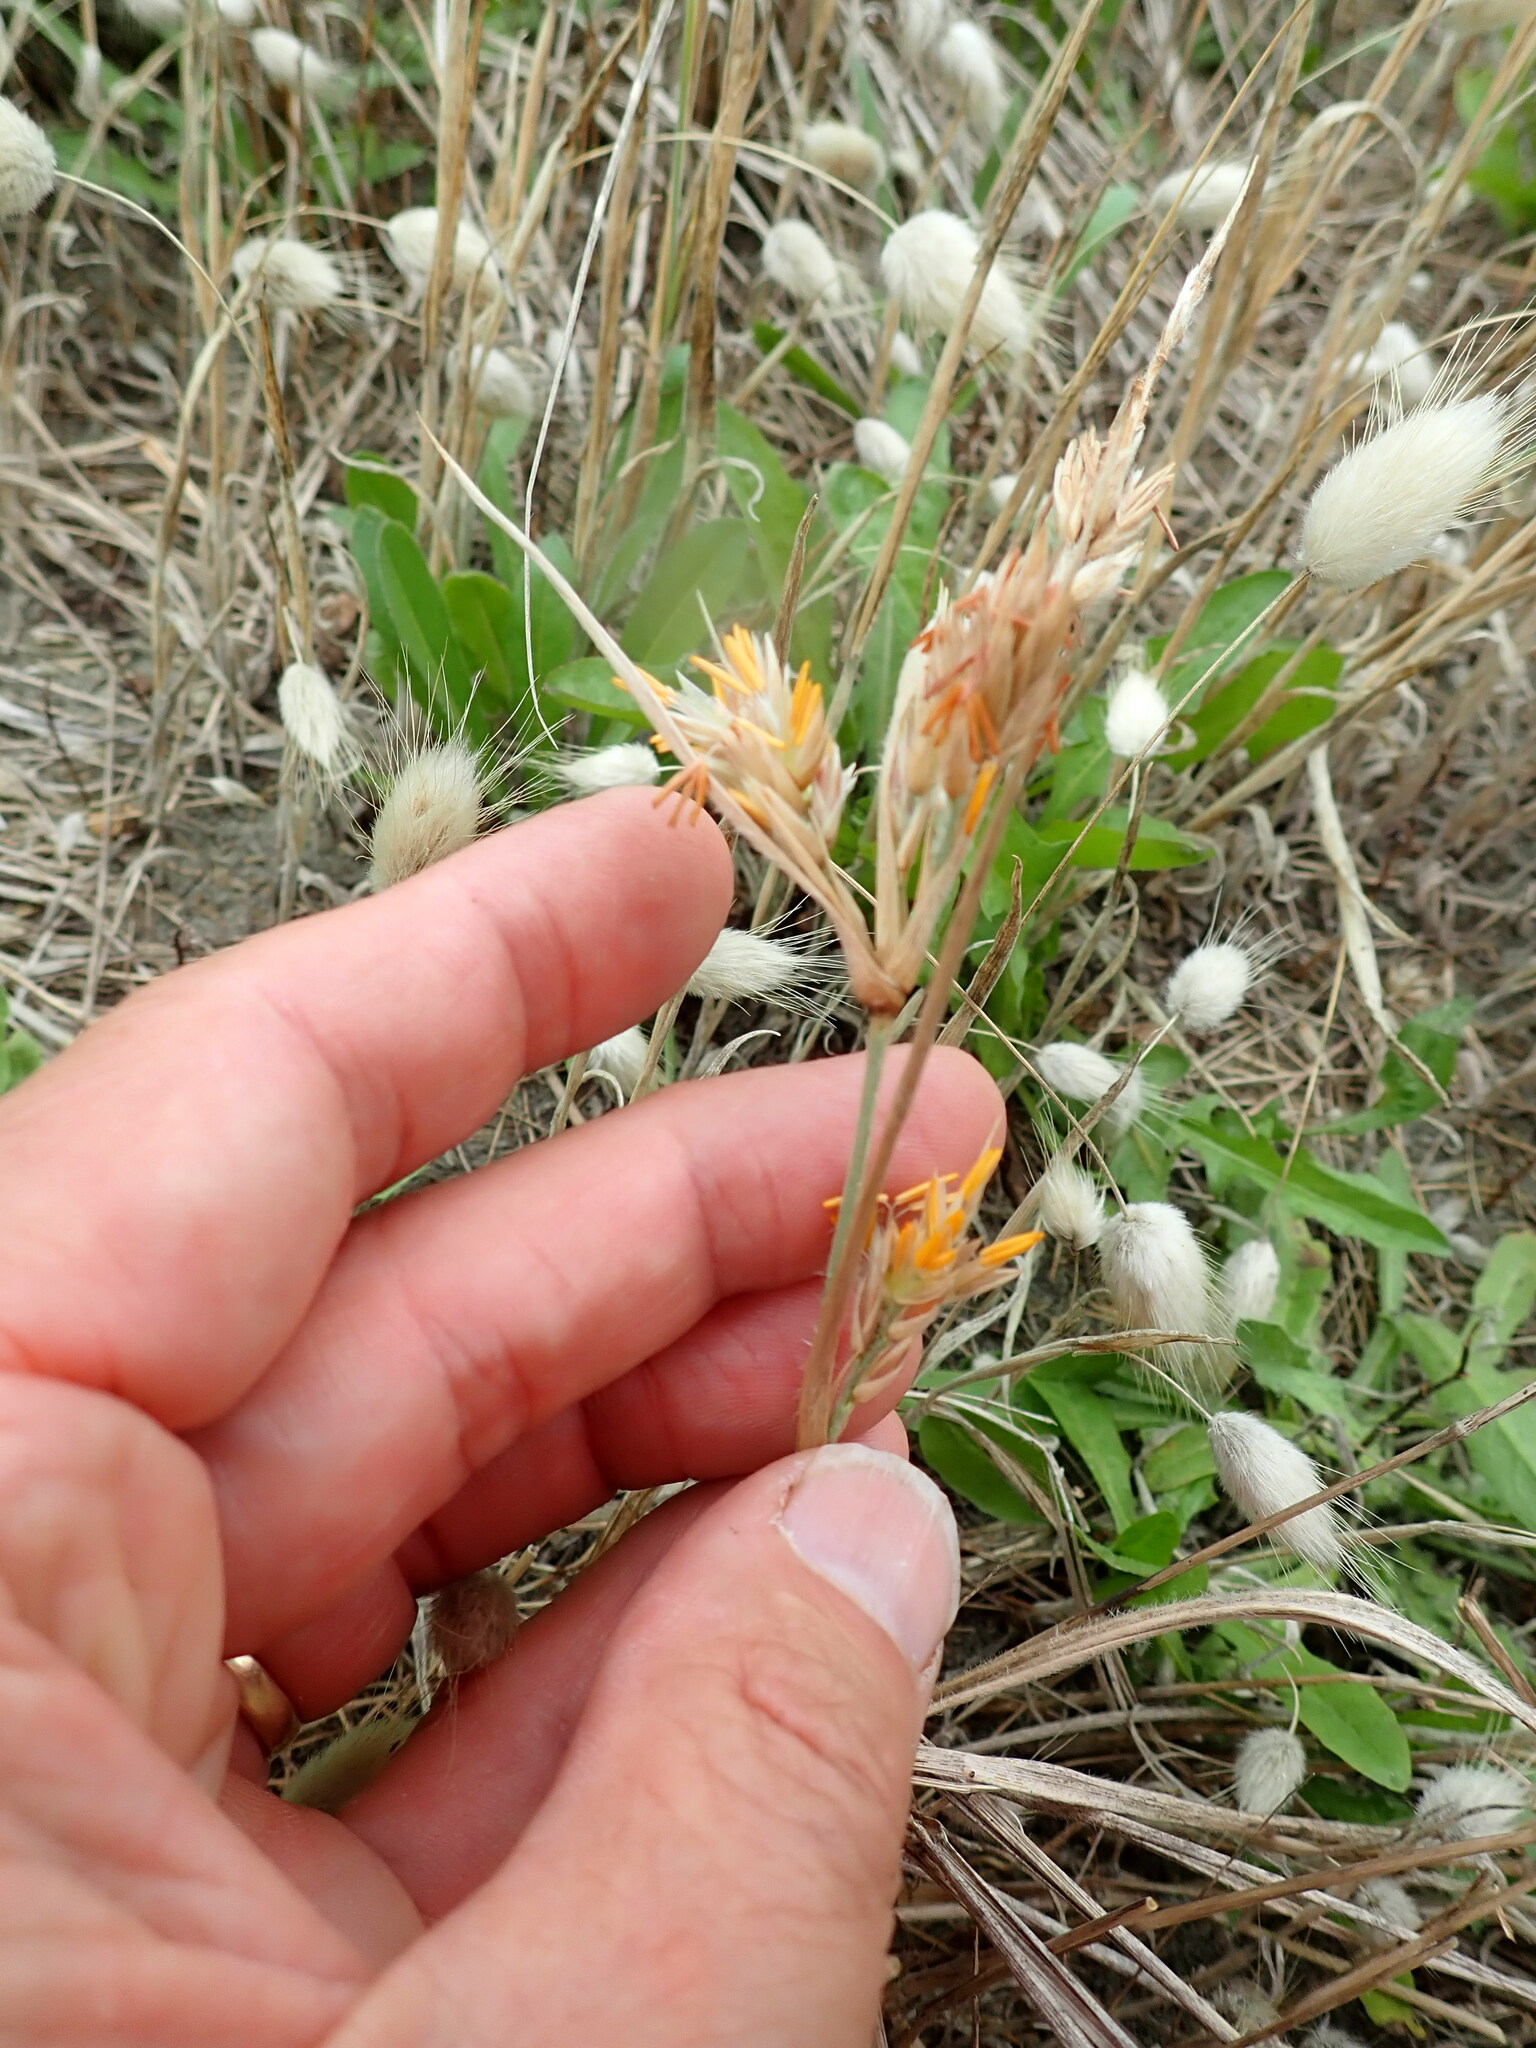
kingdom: Plantae
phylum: Tracheophyta
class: Liliopsida
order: Poales
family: Poaceae
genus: Spinifex
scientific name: Spinifex sericeus
